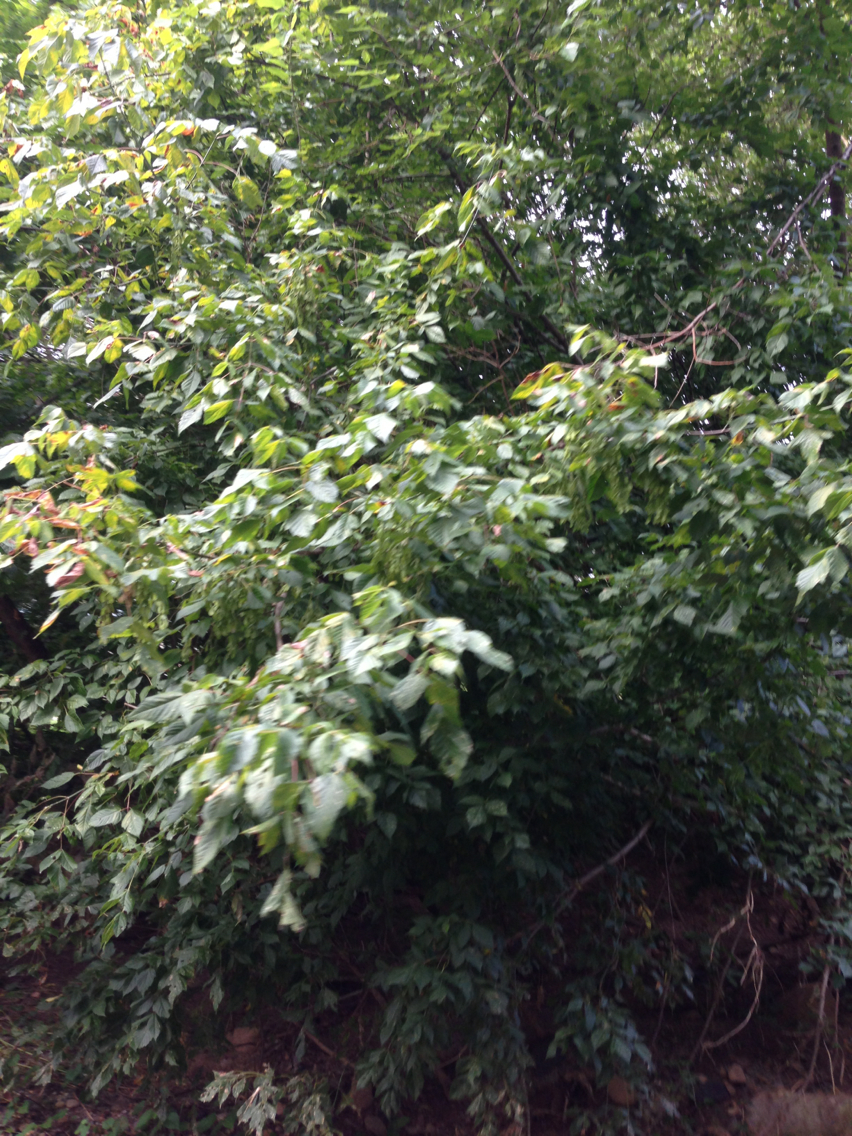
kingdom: Plantae
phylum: Tracheophyta
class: Magnoliopsida
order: Sapindales
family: Sapindaceae
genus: Acer
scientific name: Acer negundo
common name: Ashleaf maple
